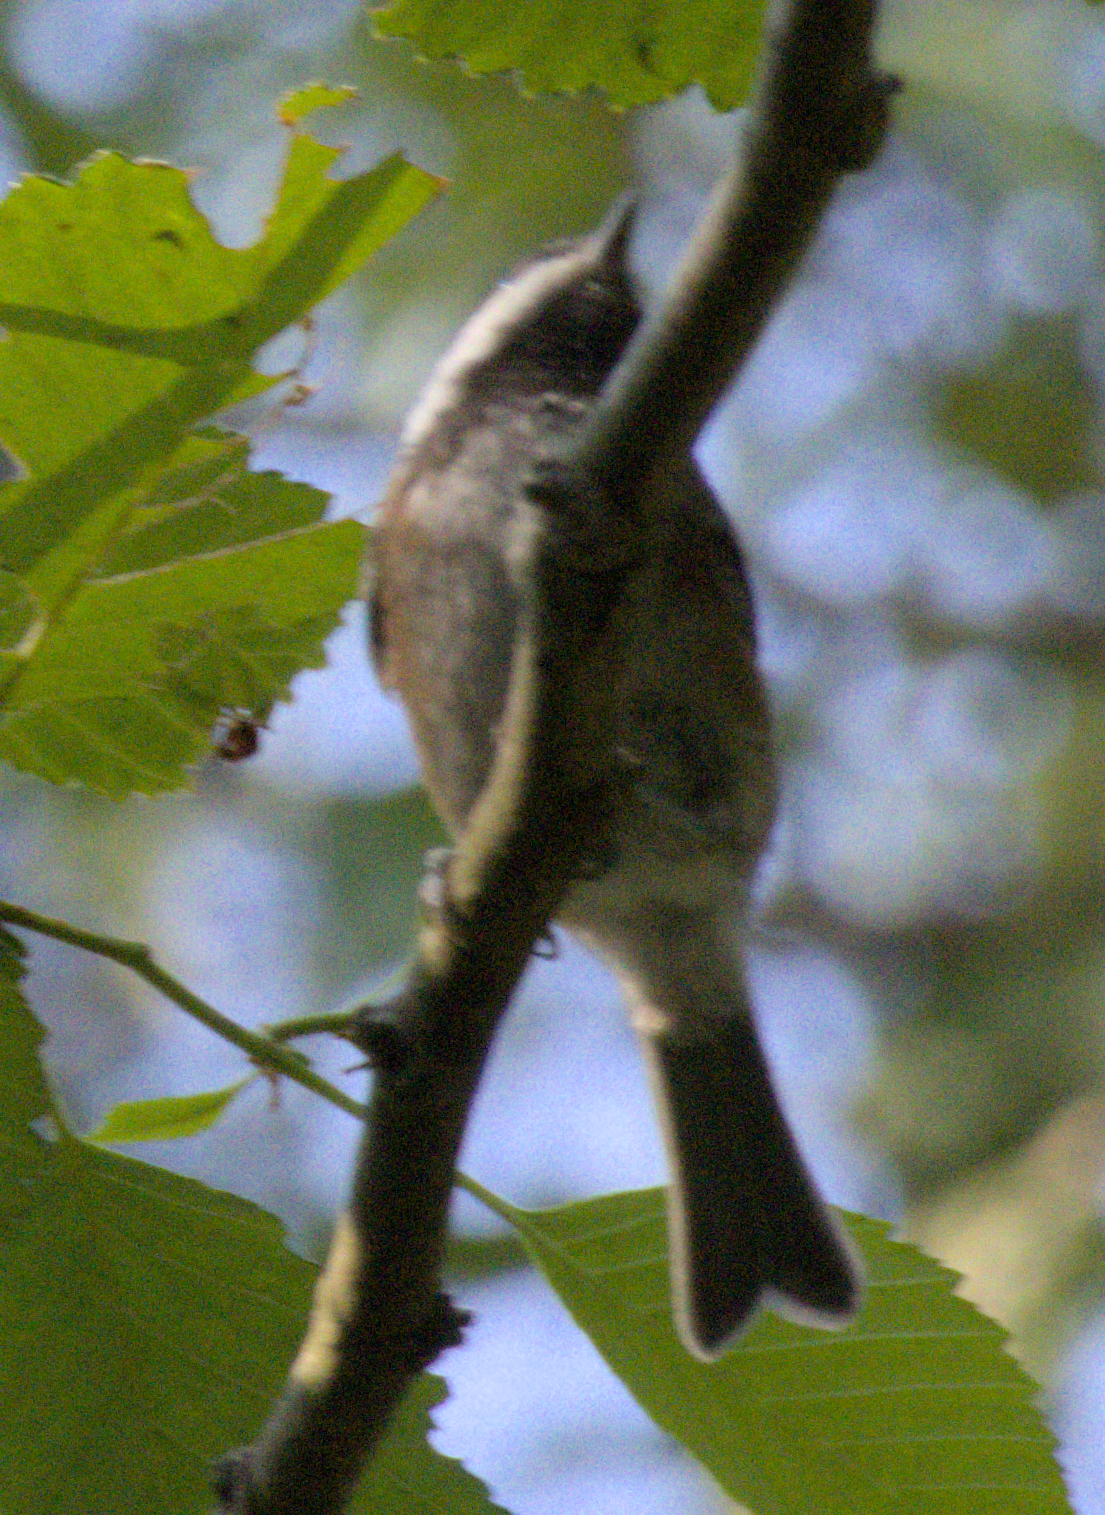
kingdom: Animalia
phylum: Chordata
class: Aves
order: Passeriformes
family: Paridae
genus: Poecile
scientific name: Poecile rufescens
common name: Chestnut-backed chickadee
